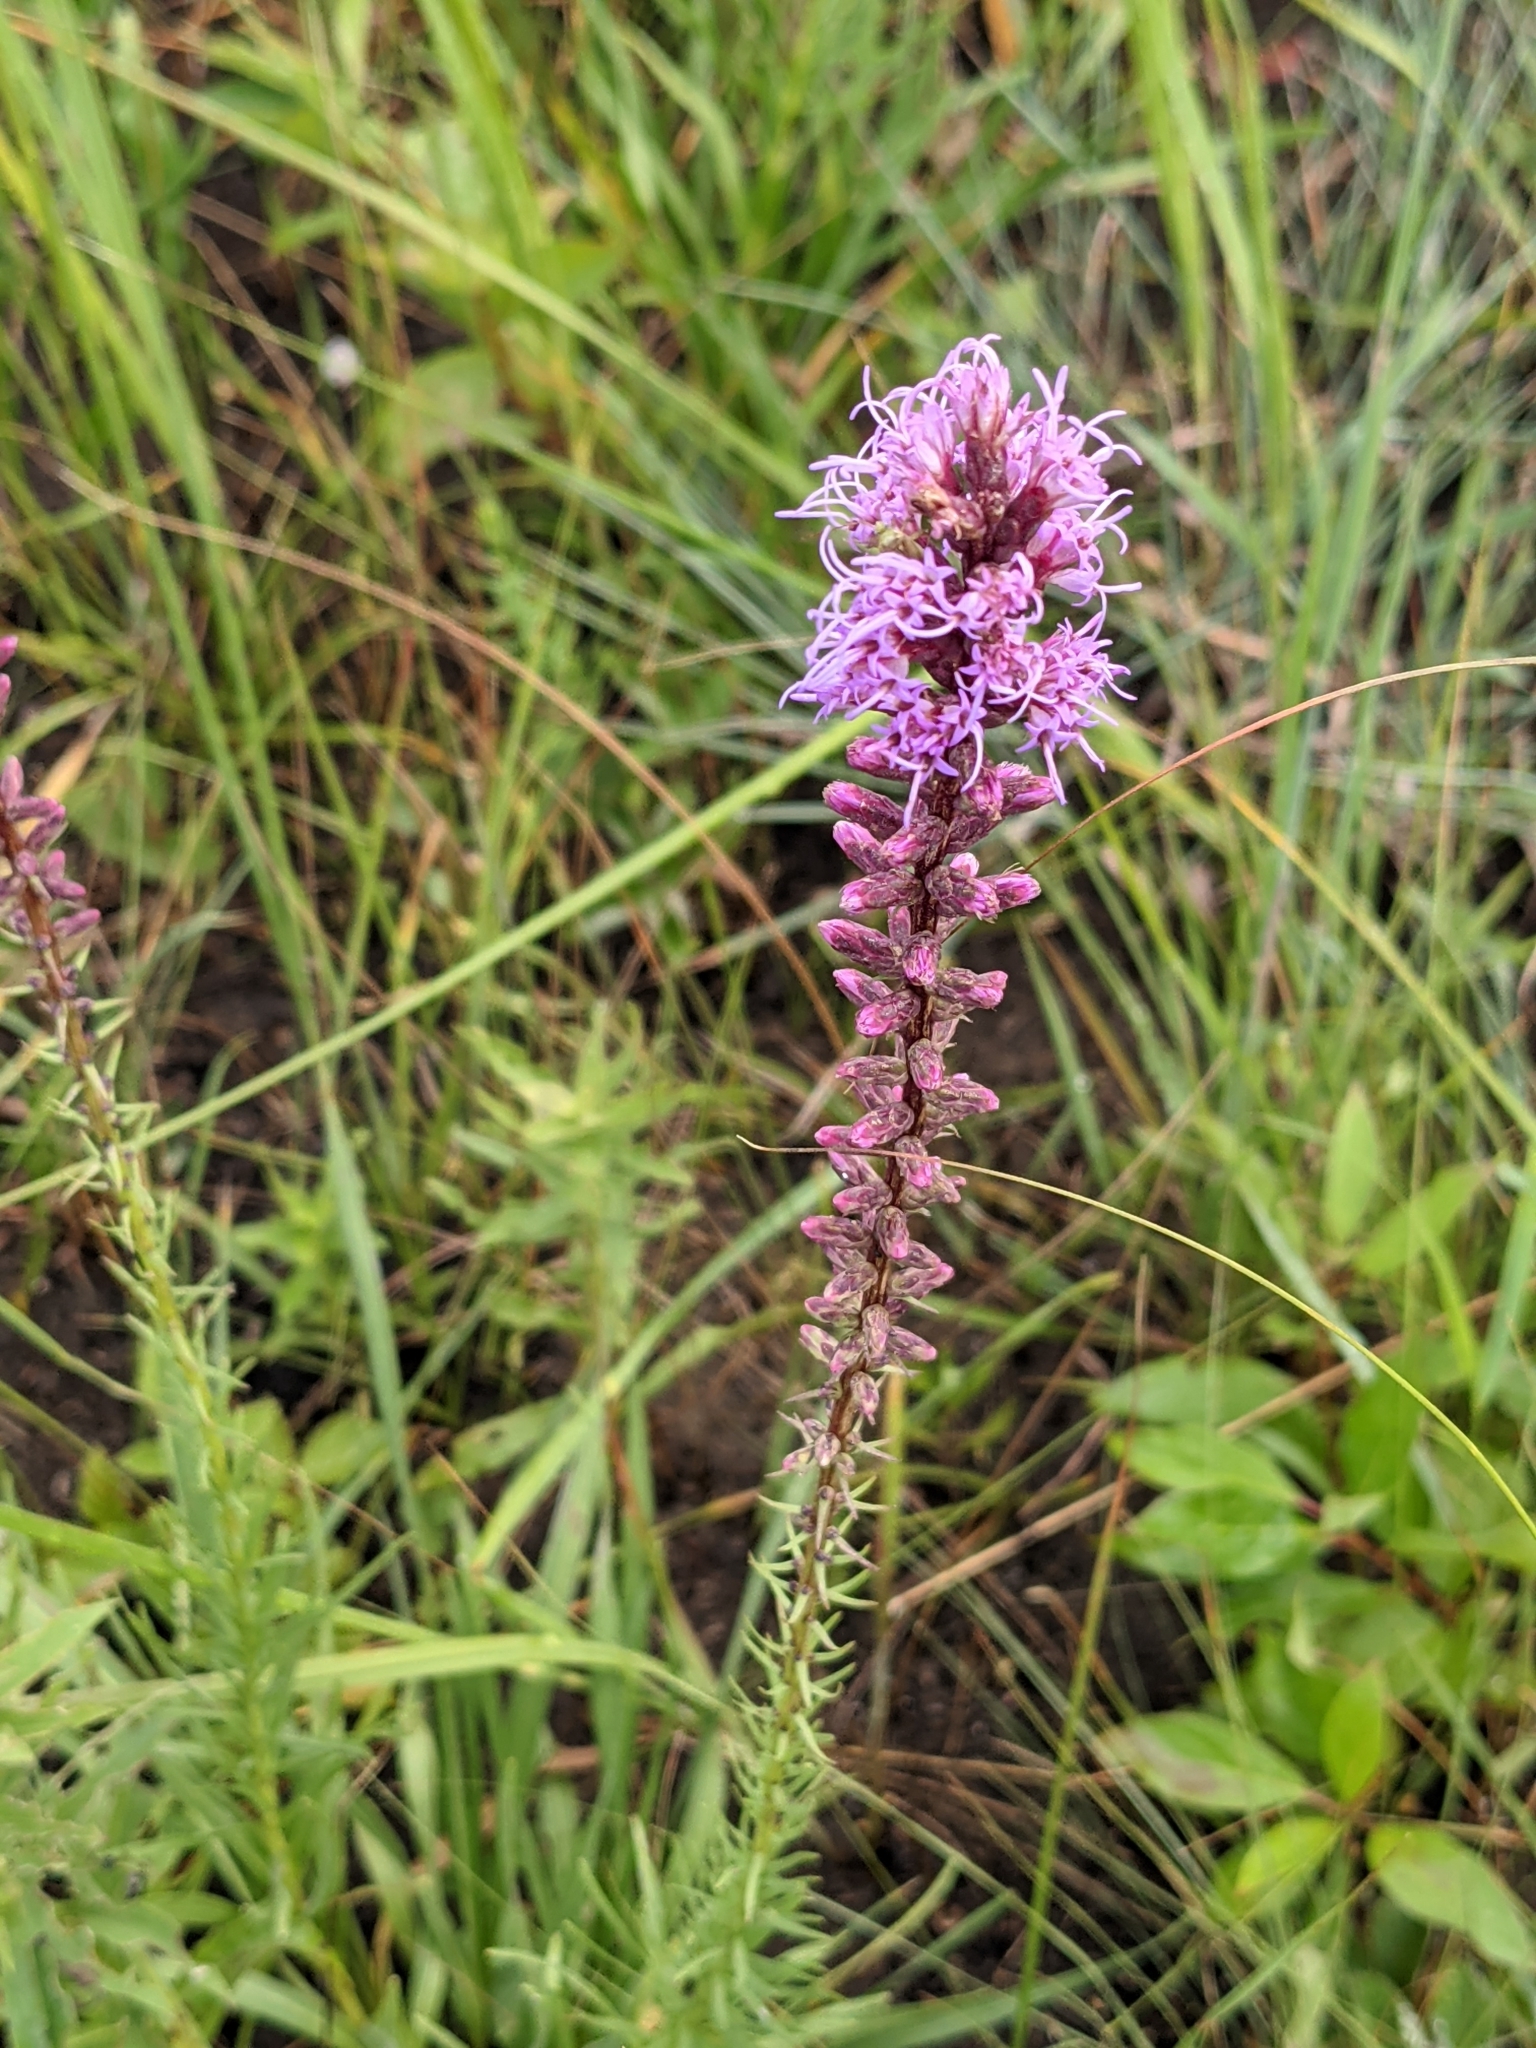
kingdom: Plantae
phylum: Tracheophyta
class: Magnoliopsida
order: Asterales
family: Asteraceae
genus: Liatris
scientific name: Liatris spicata
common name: Florist gayfeather
